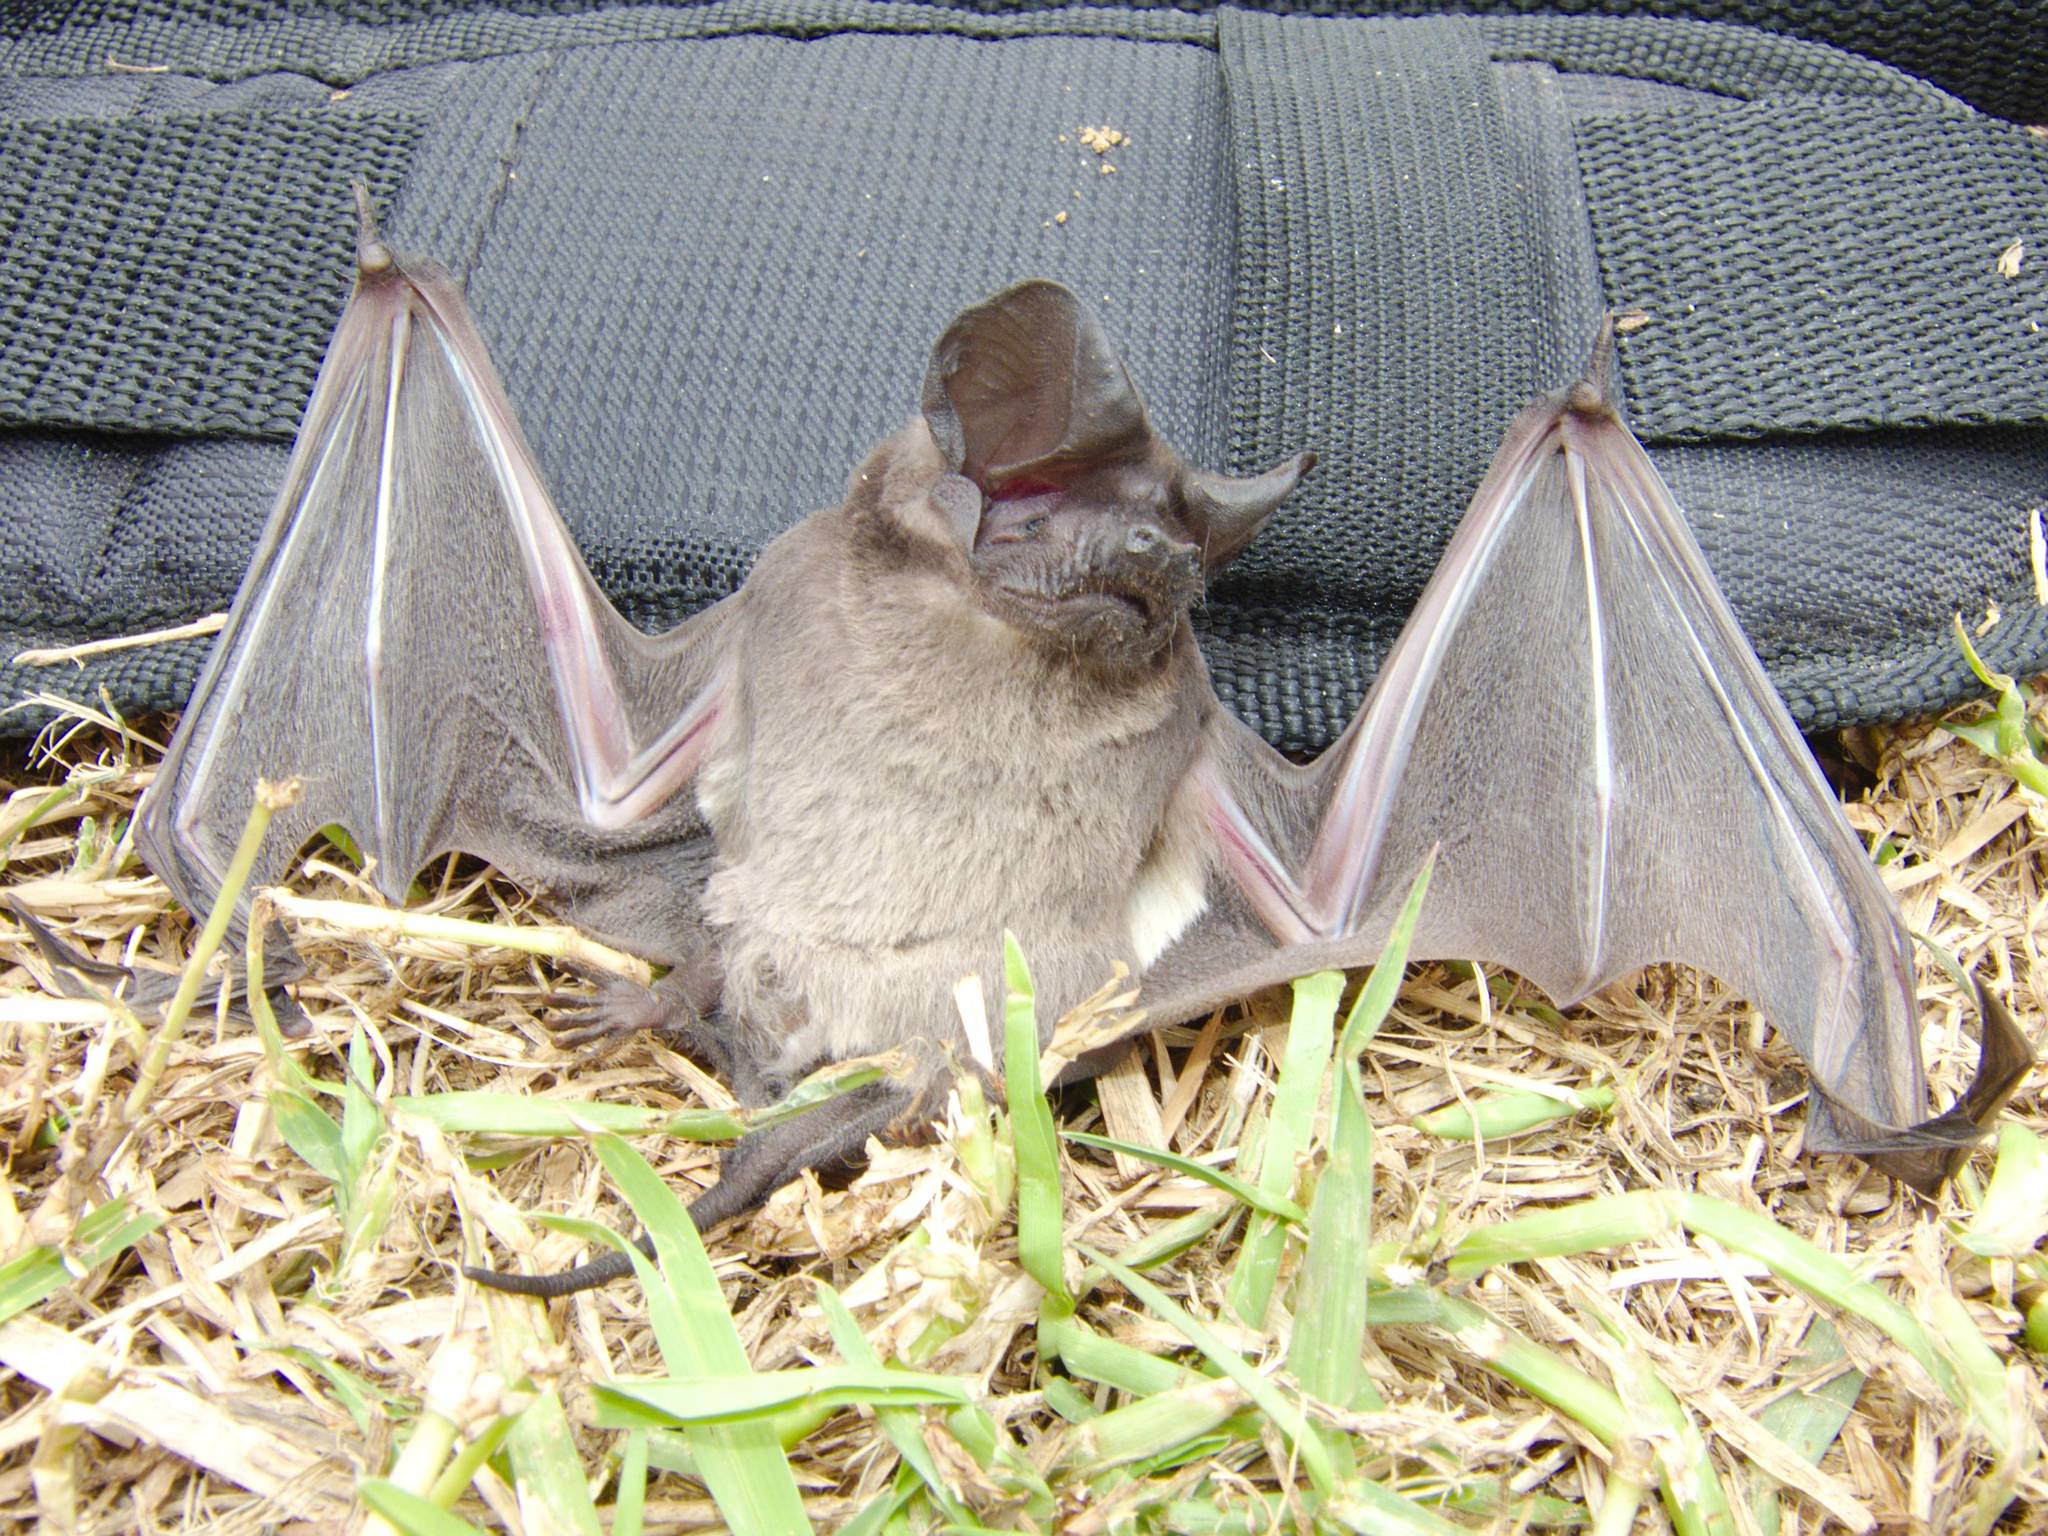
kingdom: Animalia
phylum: Chordata
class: Mammalia
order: Chiroptera
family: Molossidae
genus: Chaerephon
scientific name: Chaerephon pusillus
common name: Seychelles free-tailed bat
